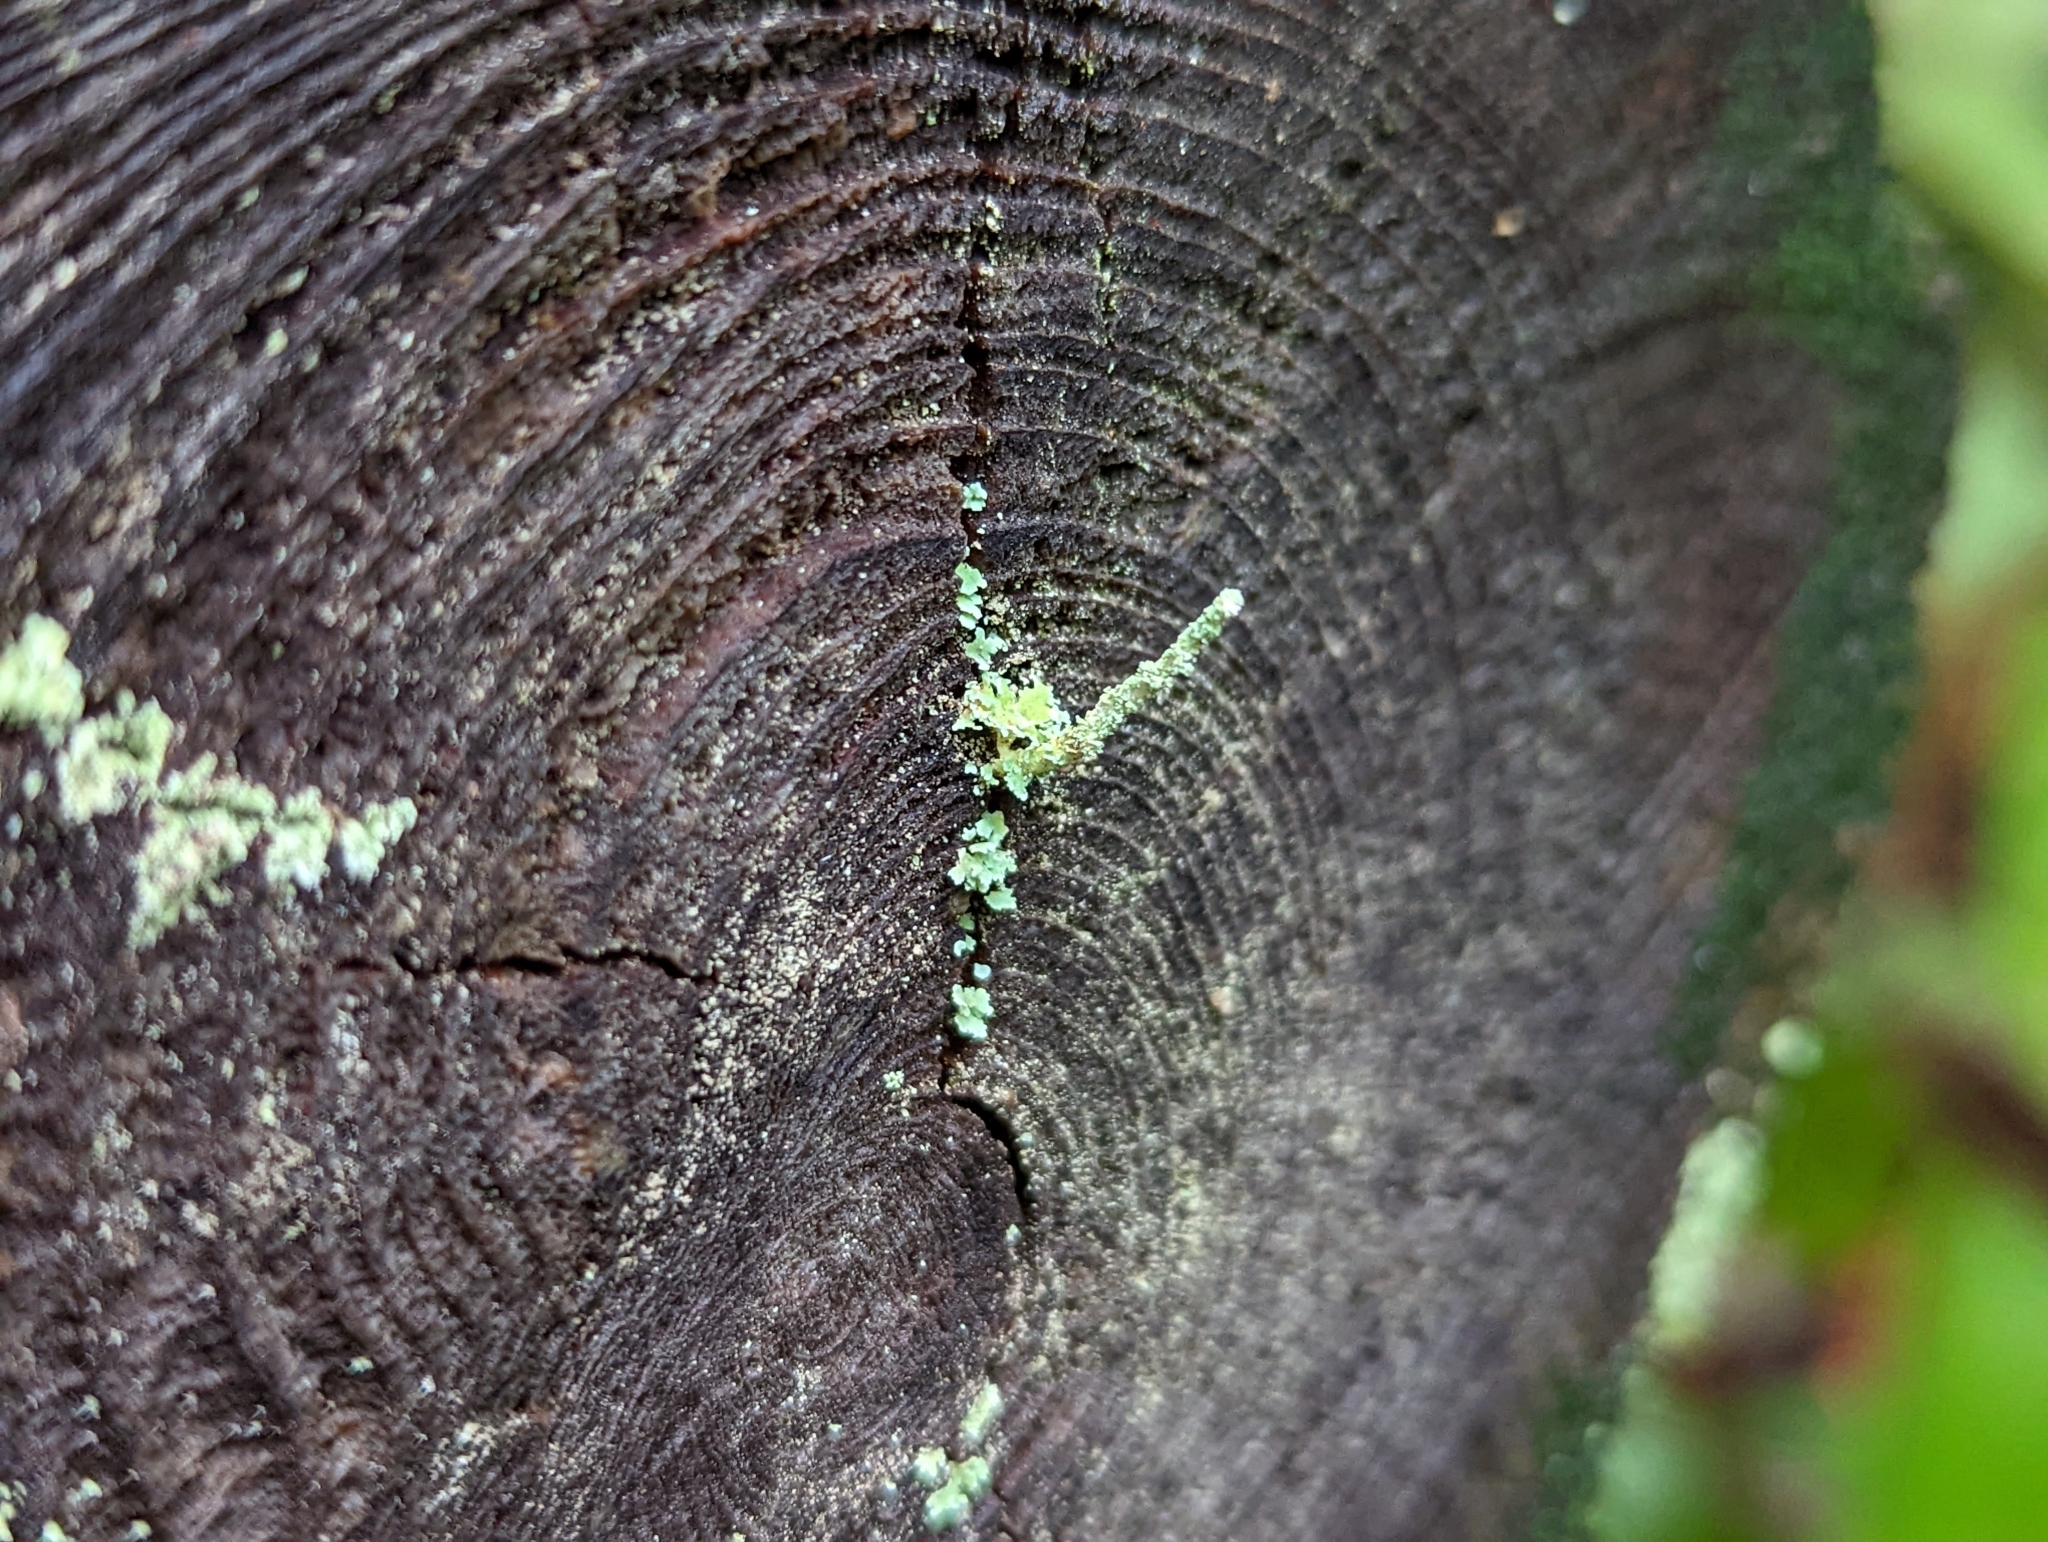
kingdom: Fungi
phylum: Ascomycota
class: Lecanoromycetes
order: Lecanorales
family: Cladoniaceae
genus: Cladonia
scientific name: Cladonia coniocraea
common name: Common powderhorn
